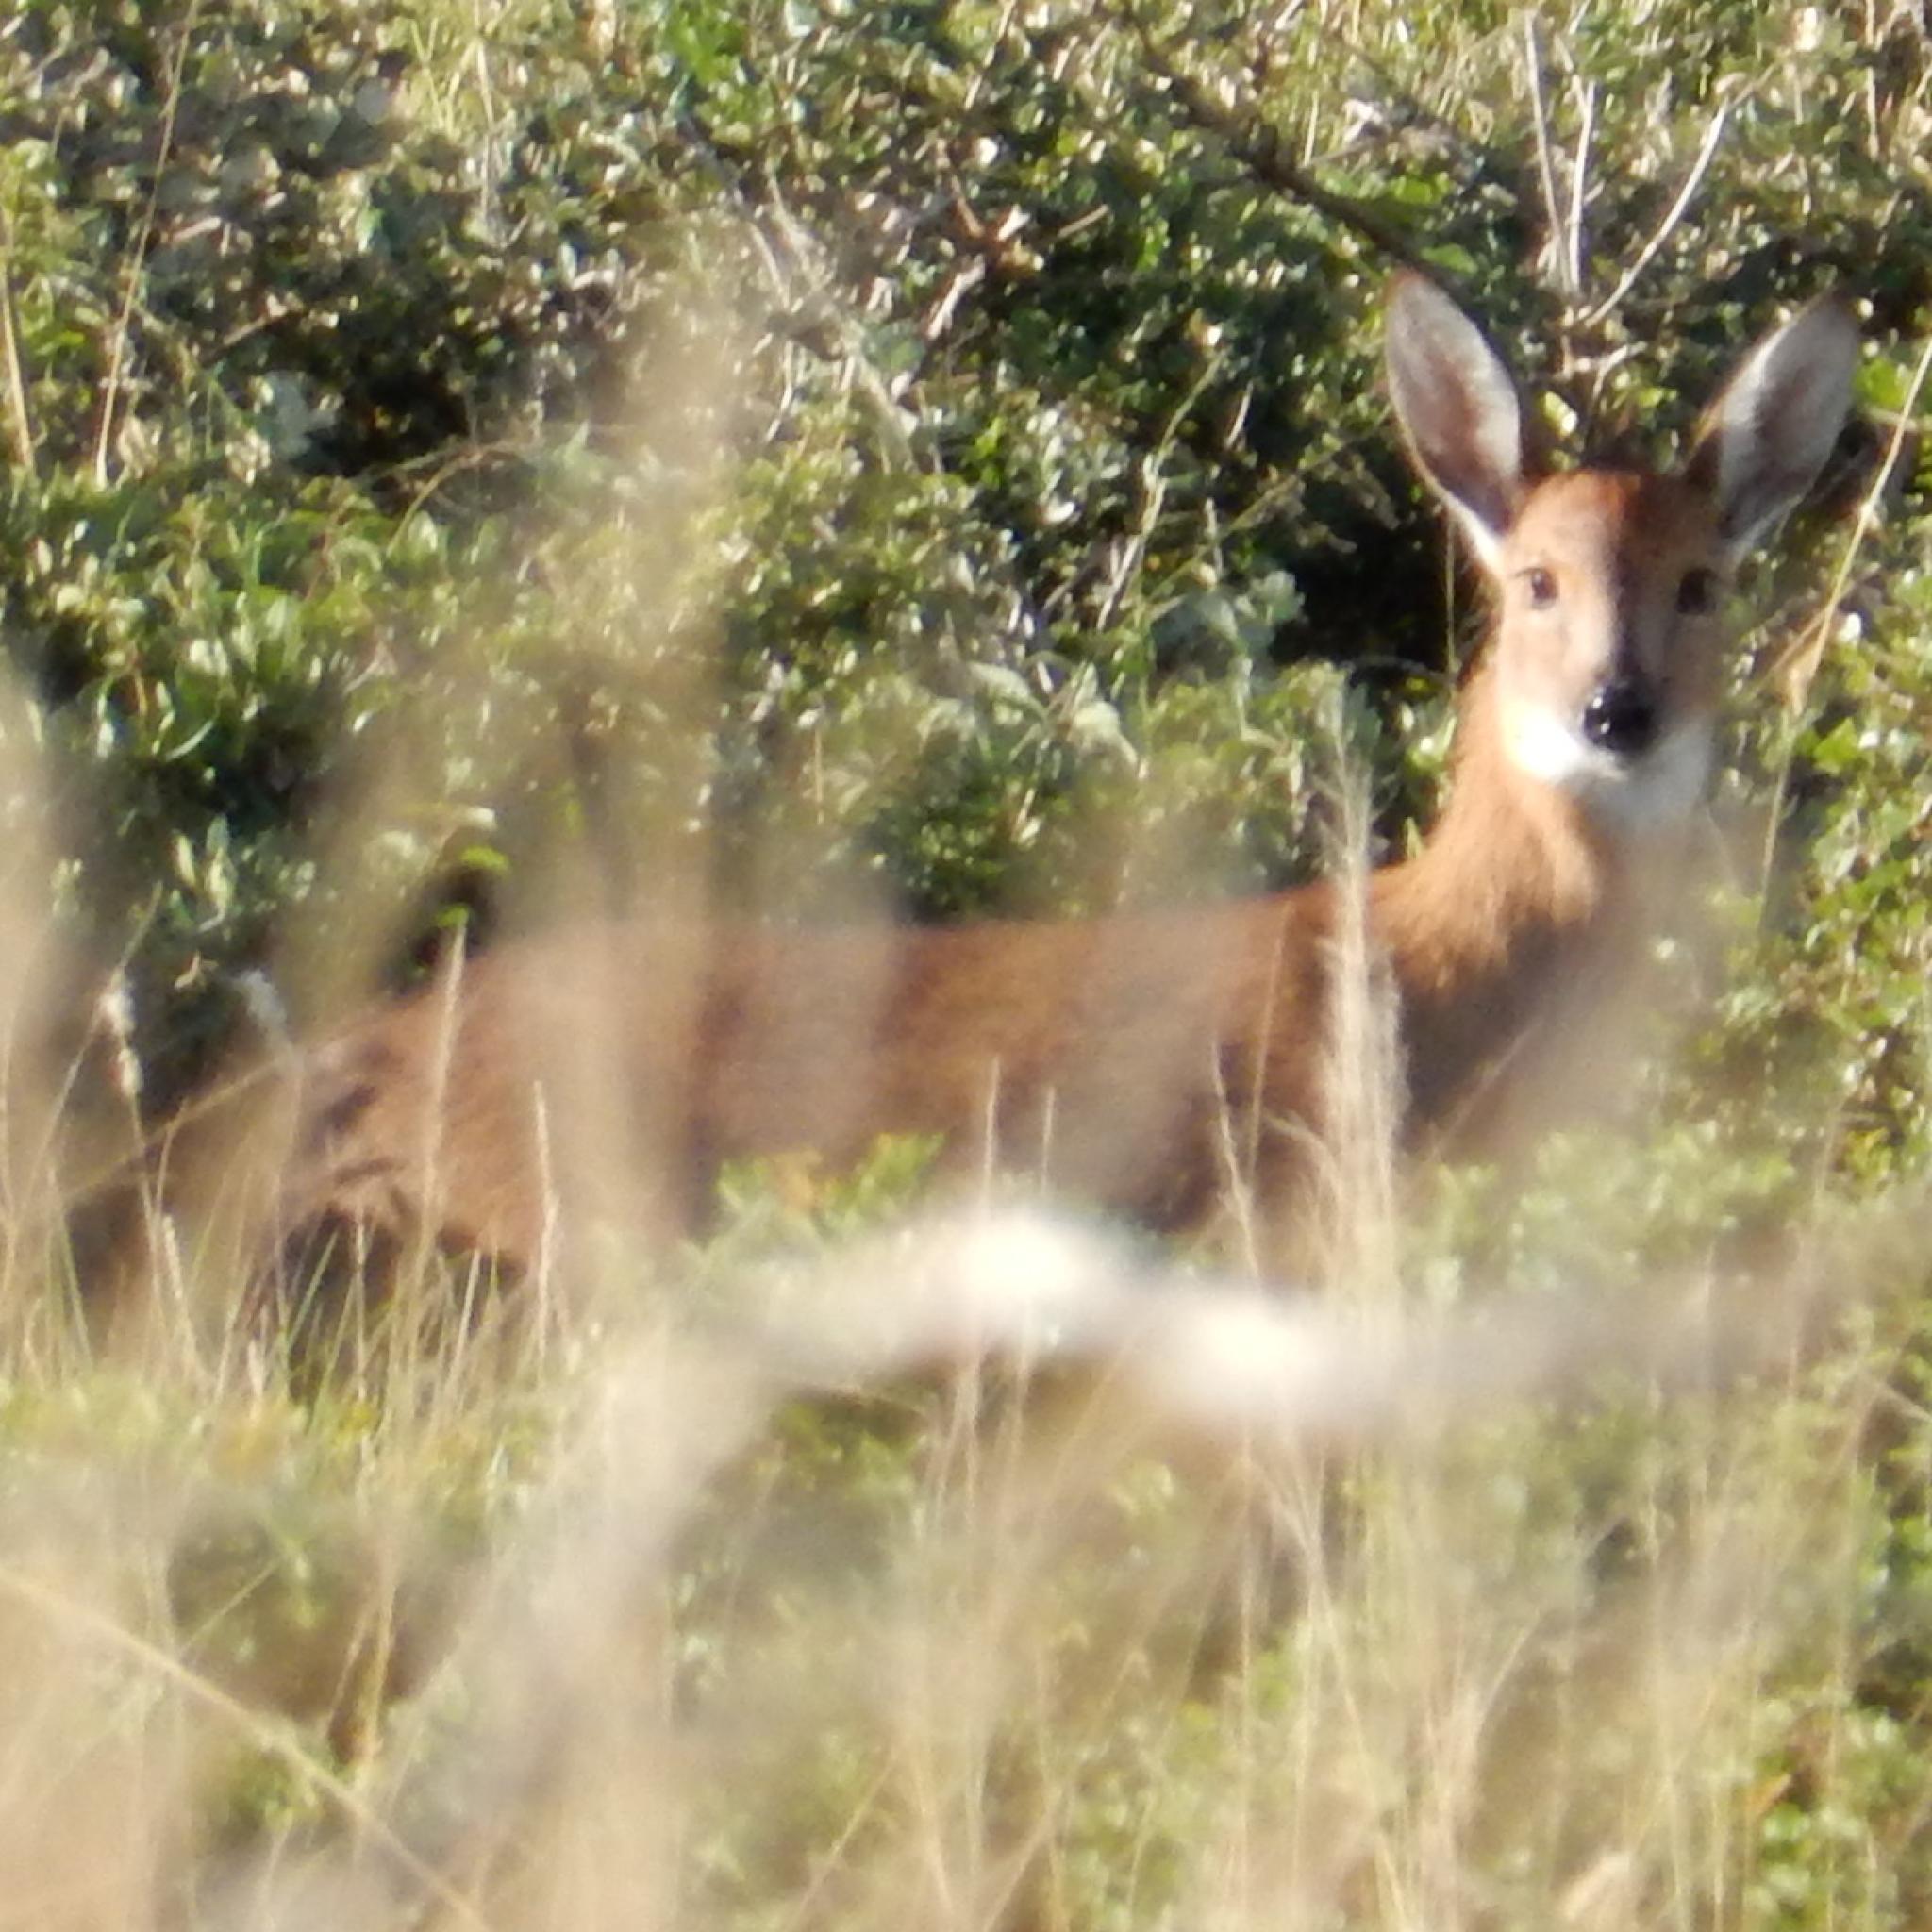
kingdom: Animalia
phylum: Chordata
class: Mammalia
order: Artiodactyla
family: Bovidae
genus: Sylvicapra
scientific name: Sylvicapra grimmia
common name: Bush duiker
